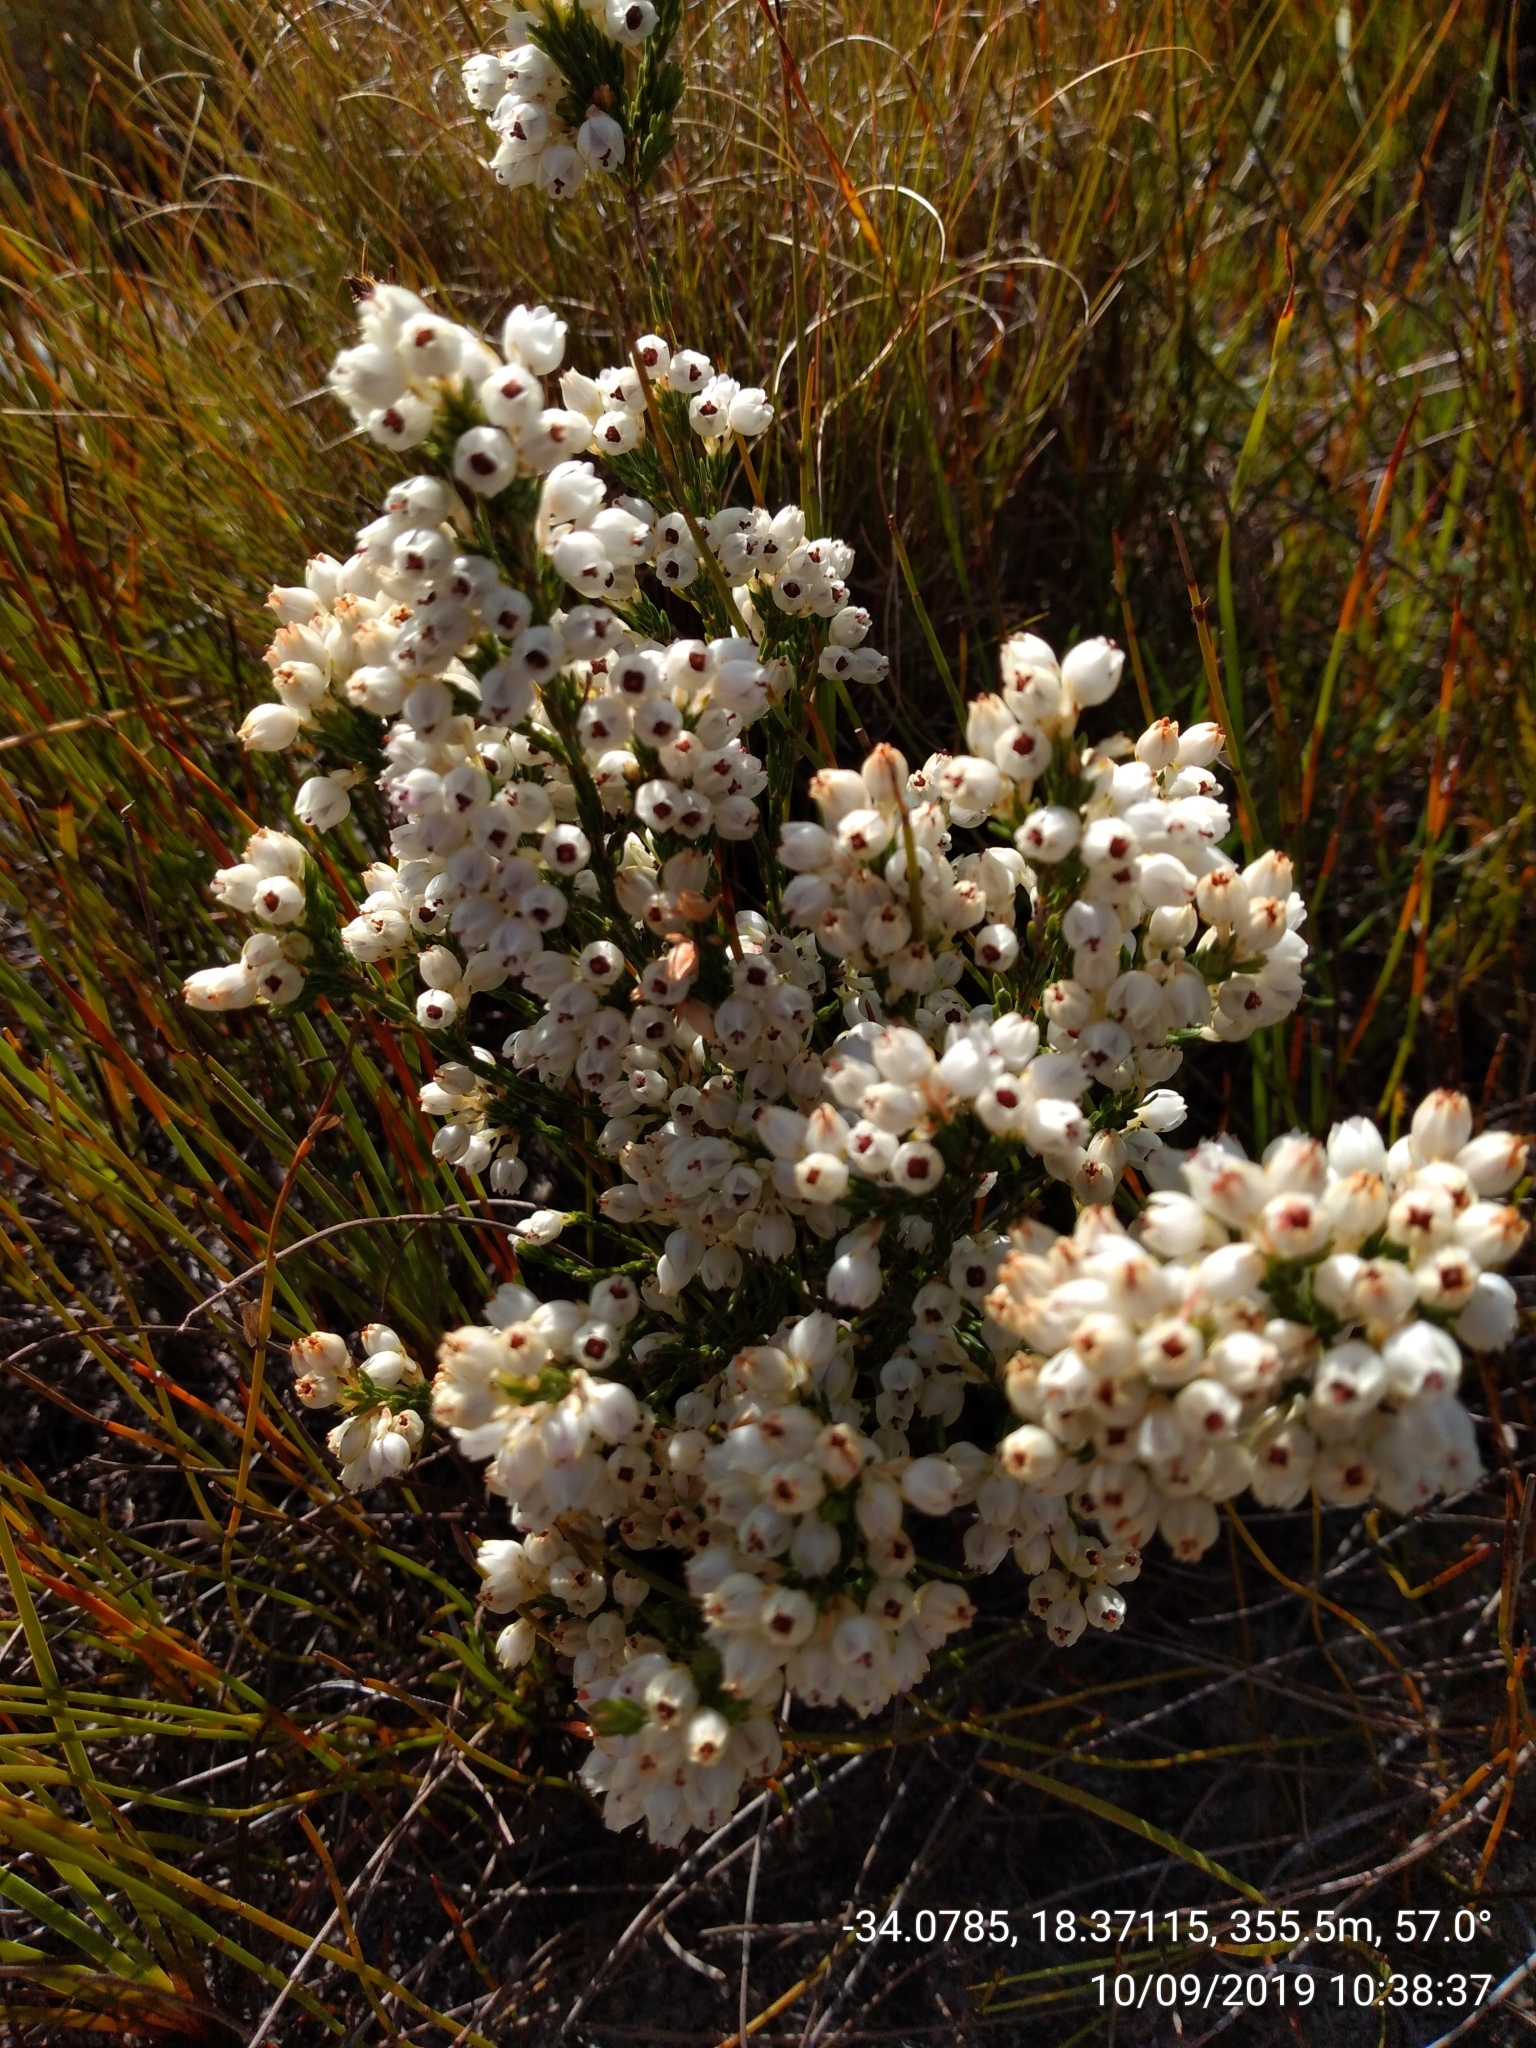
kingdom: Plantae
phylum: Tracheophyta
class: Magnoliopsida
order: Ericales
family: Ericaceae
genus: Erica
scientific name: Erica nivea
